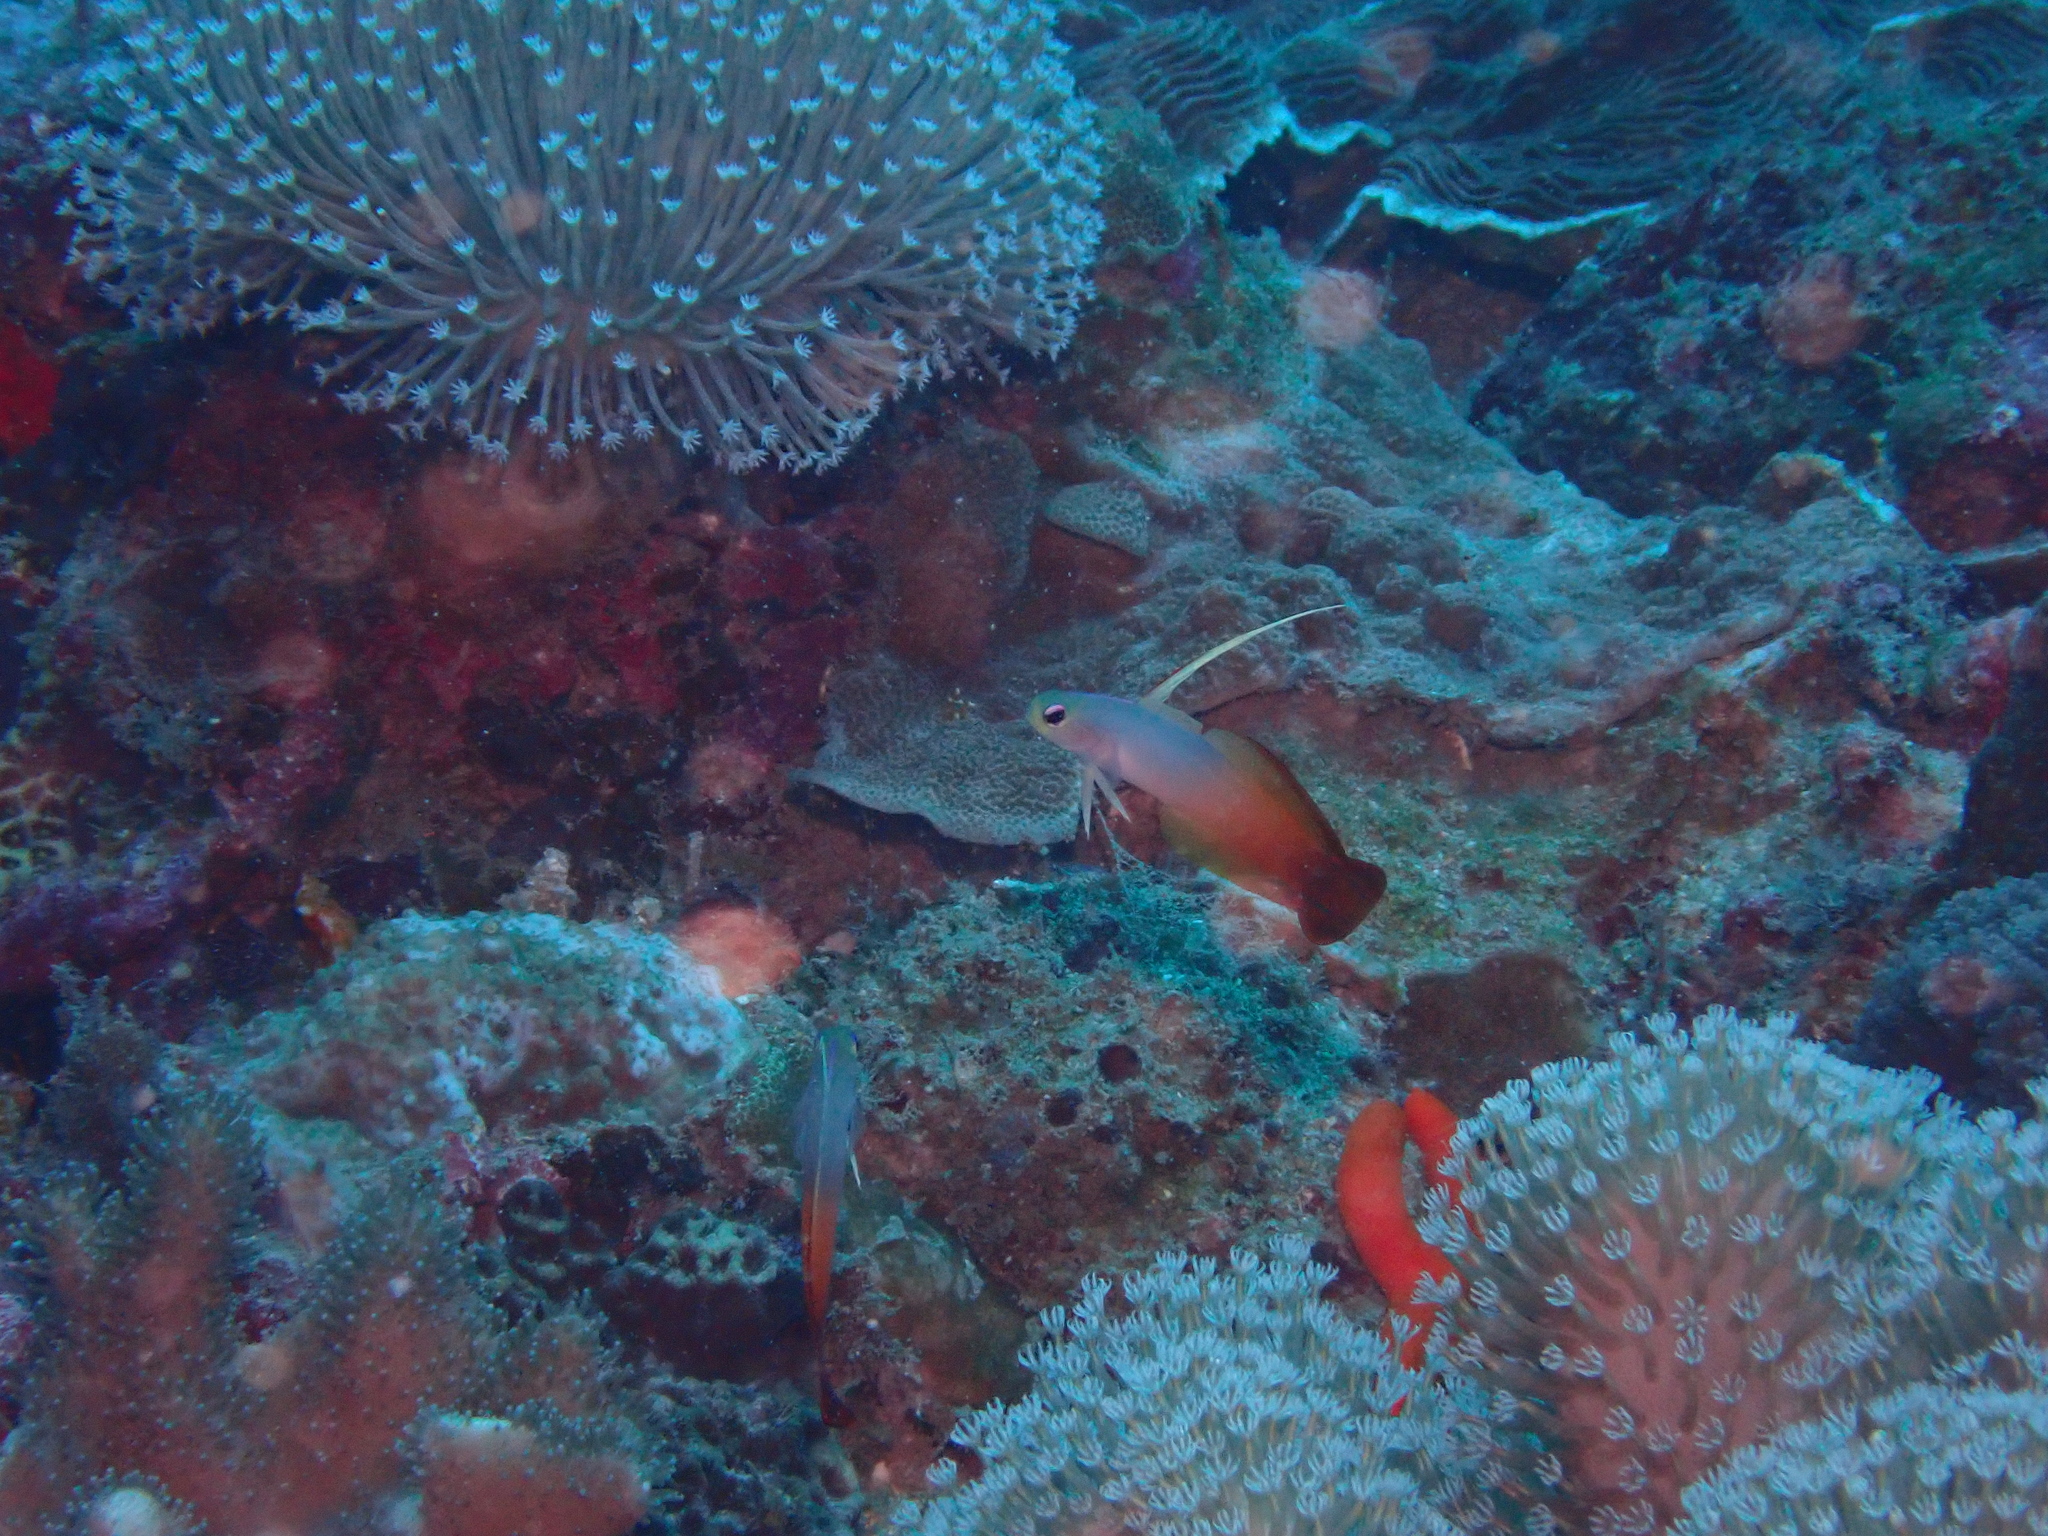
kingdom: Animalia
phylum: Chordata
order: Perciformes
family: Microdesmidae
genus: Nemateleotris
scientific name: Nemateleotris magnifica
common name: Fire goby
